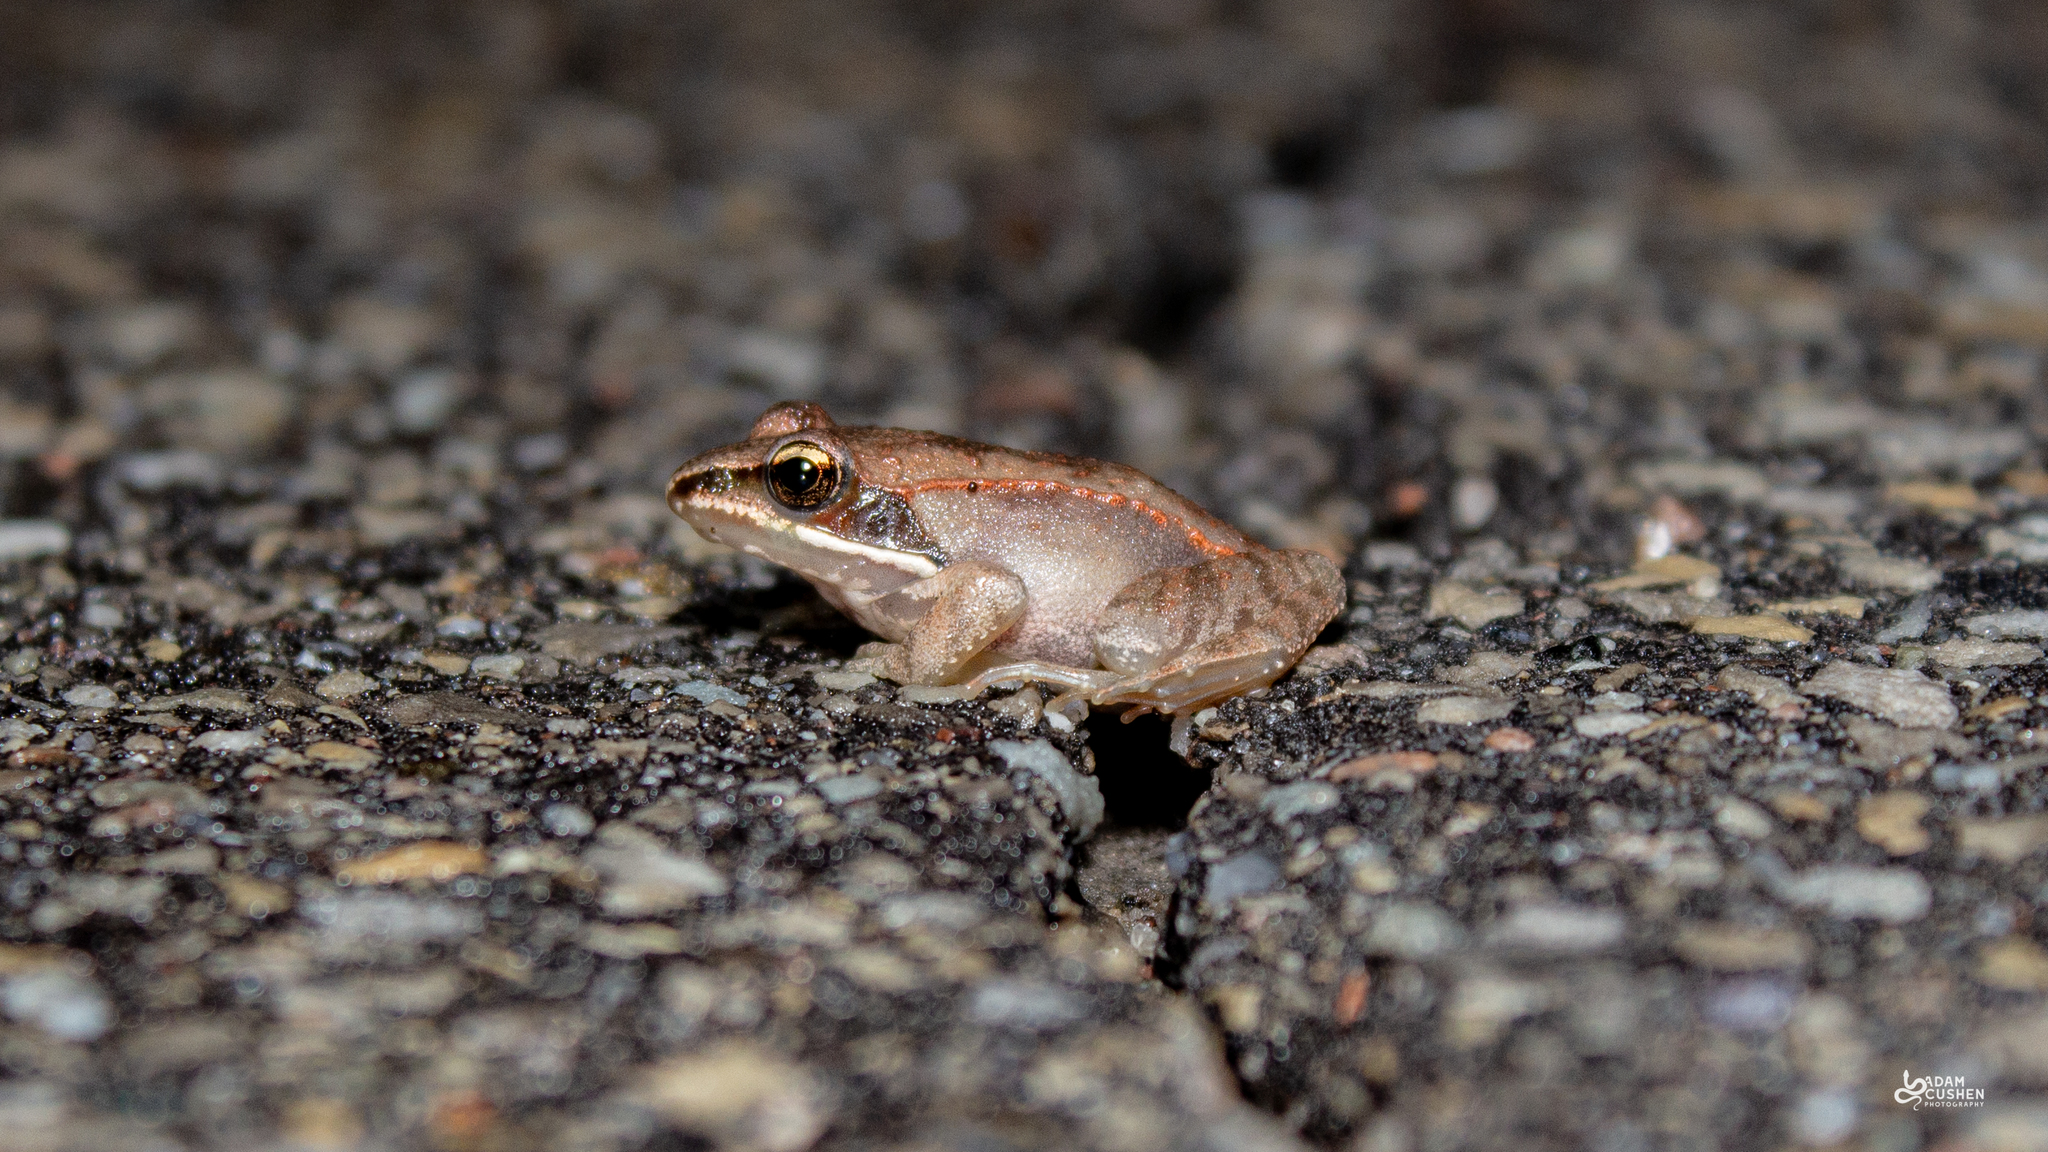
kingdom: Animalia
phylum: Chordata
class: Amphibia
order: Anura
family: Ranidae
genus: Lithobates
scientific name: Lithobates sylvaticus
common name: Wood frog
